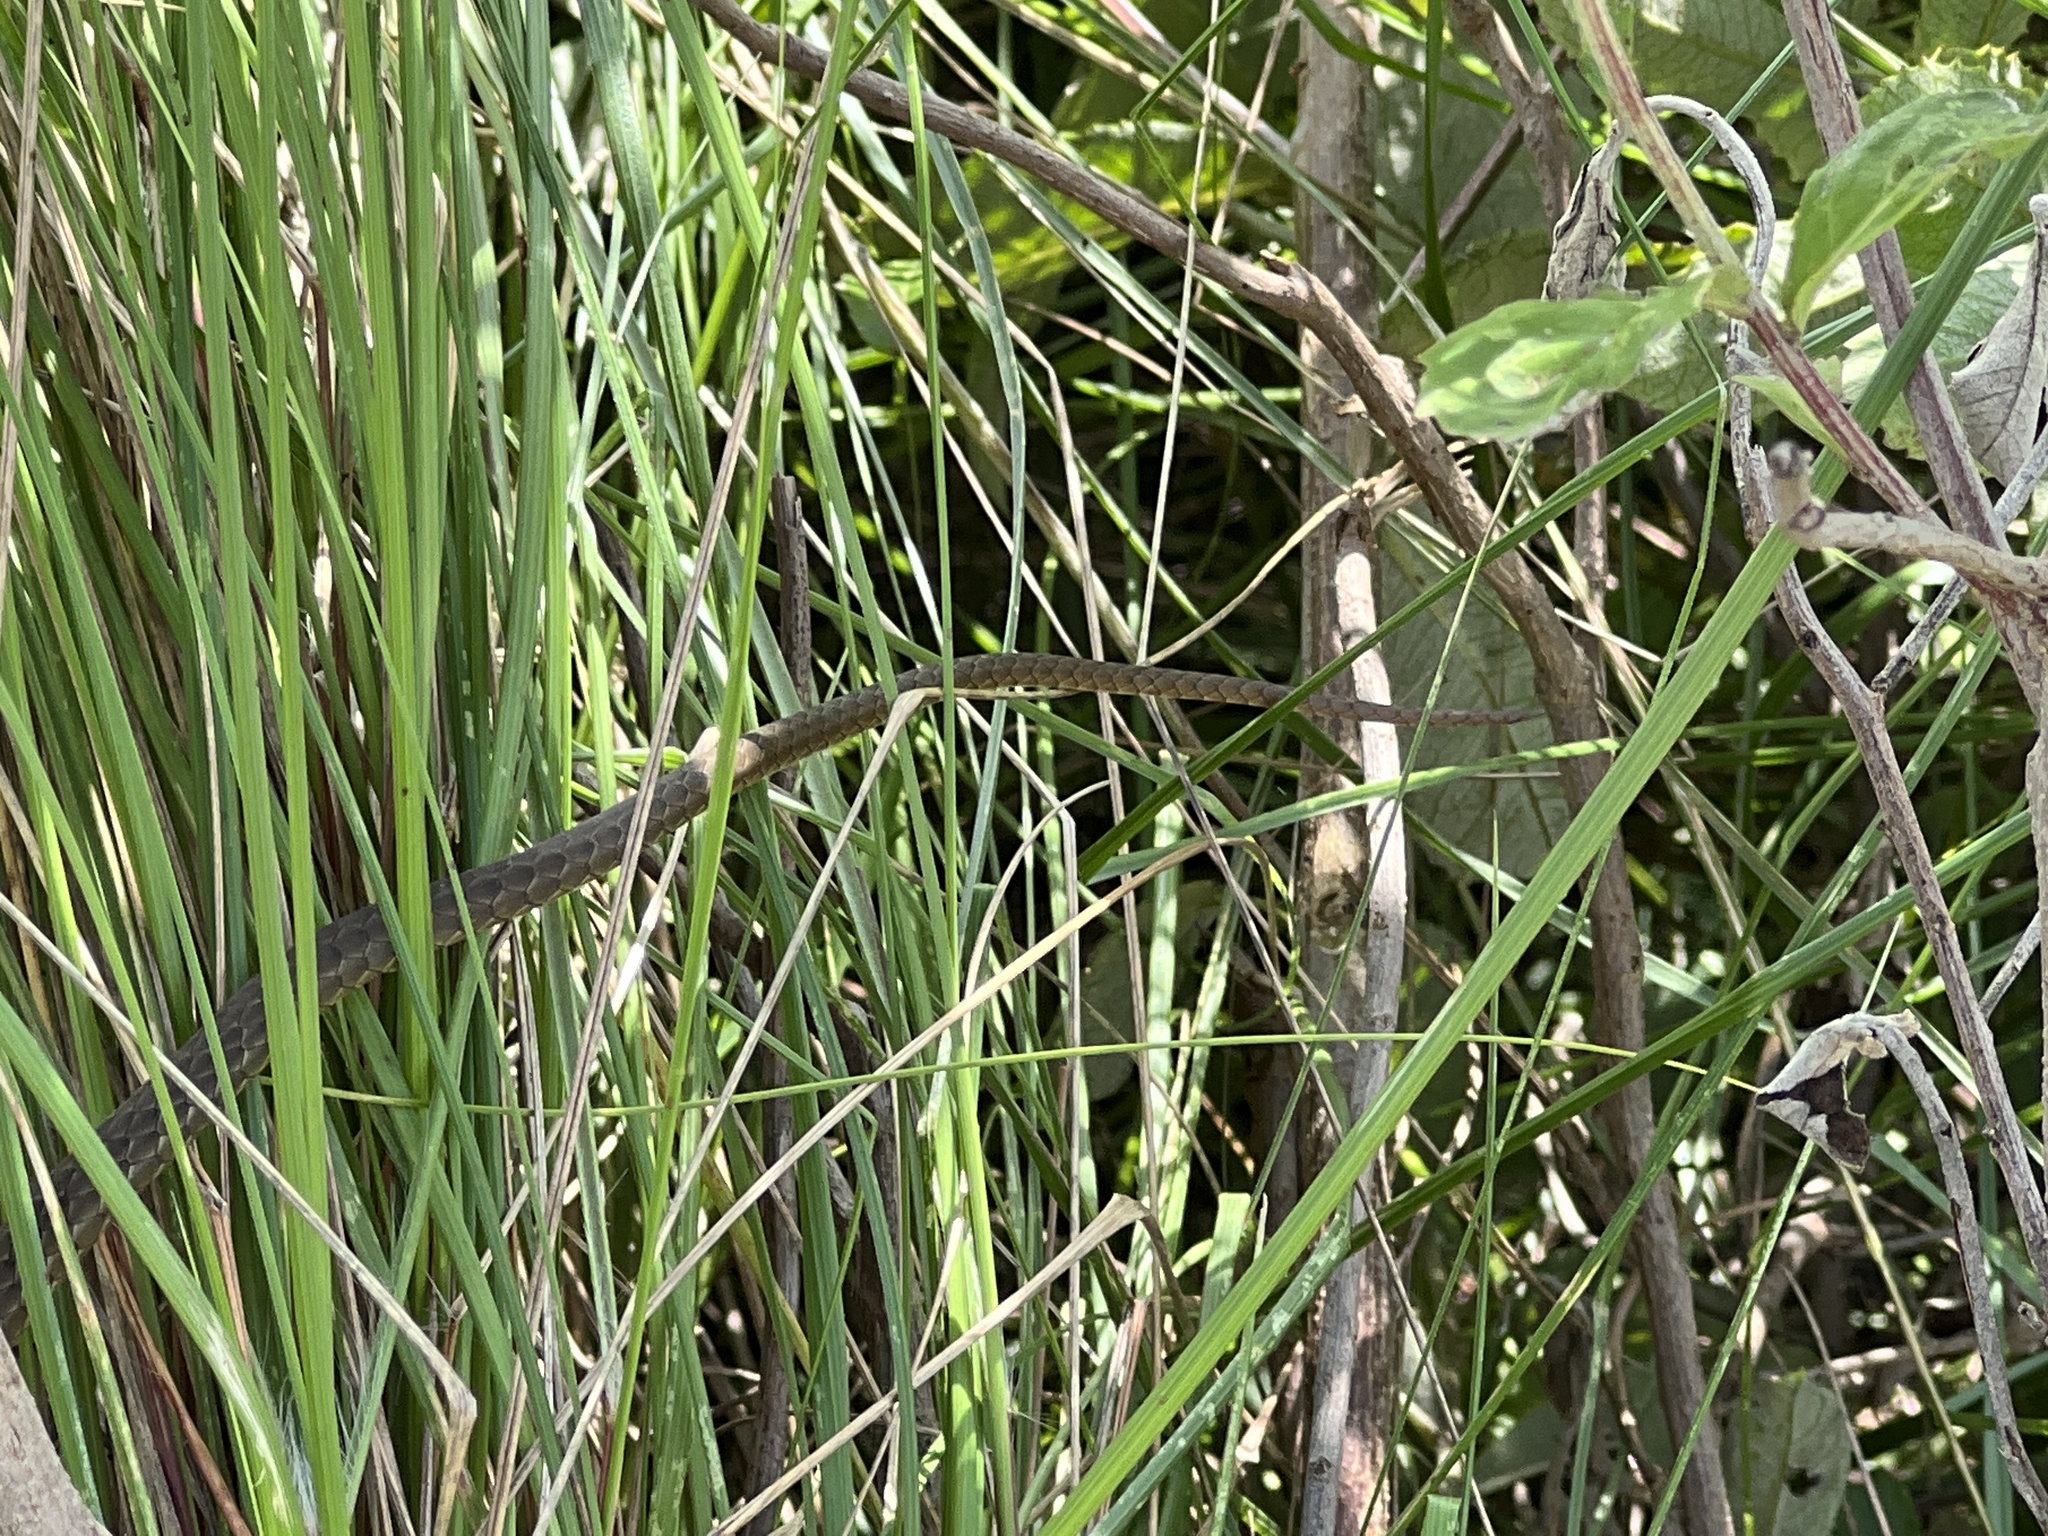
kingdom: Animalia
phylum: Chordata
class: Squamata
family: Colubridae
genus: Philodryas
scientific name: Philodryas patagoniensis
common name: Patagonia green racer
